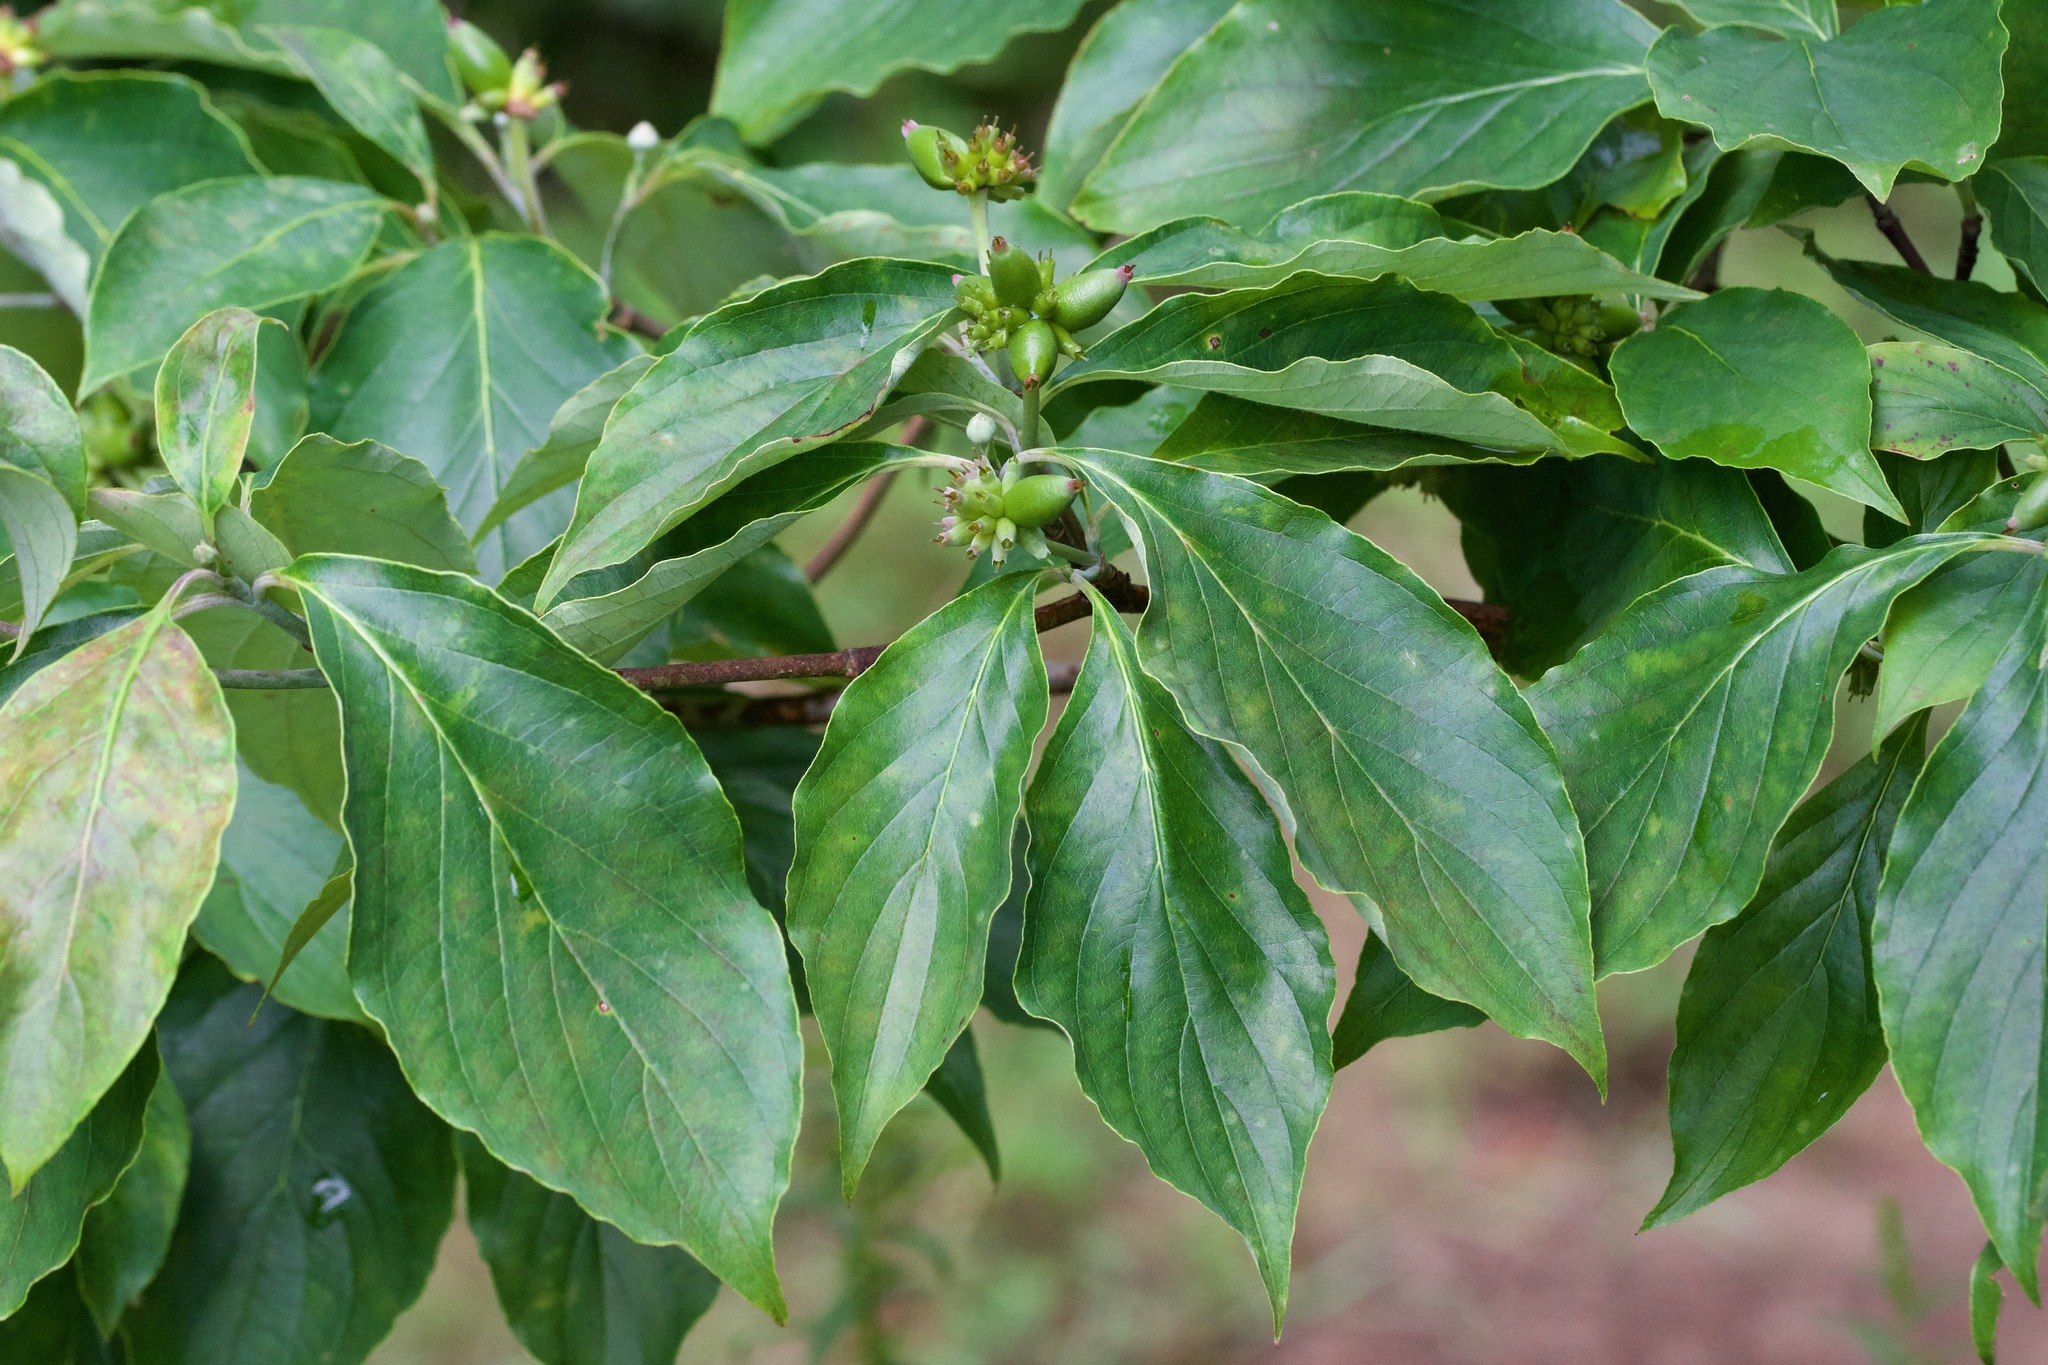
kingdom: Plantae
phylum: Tracheophyta
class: Magnoliopsida
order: Cornales
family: Cornaceae
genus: Cornus
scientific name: Cornus florida
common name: Flowering dogwood
